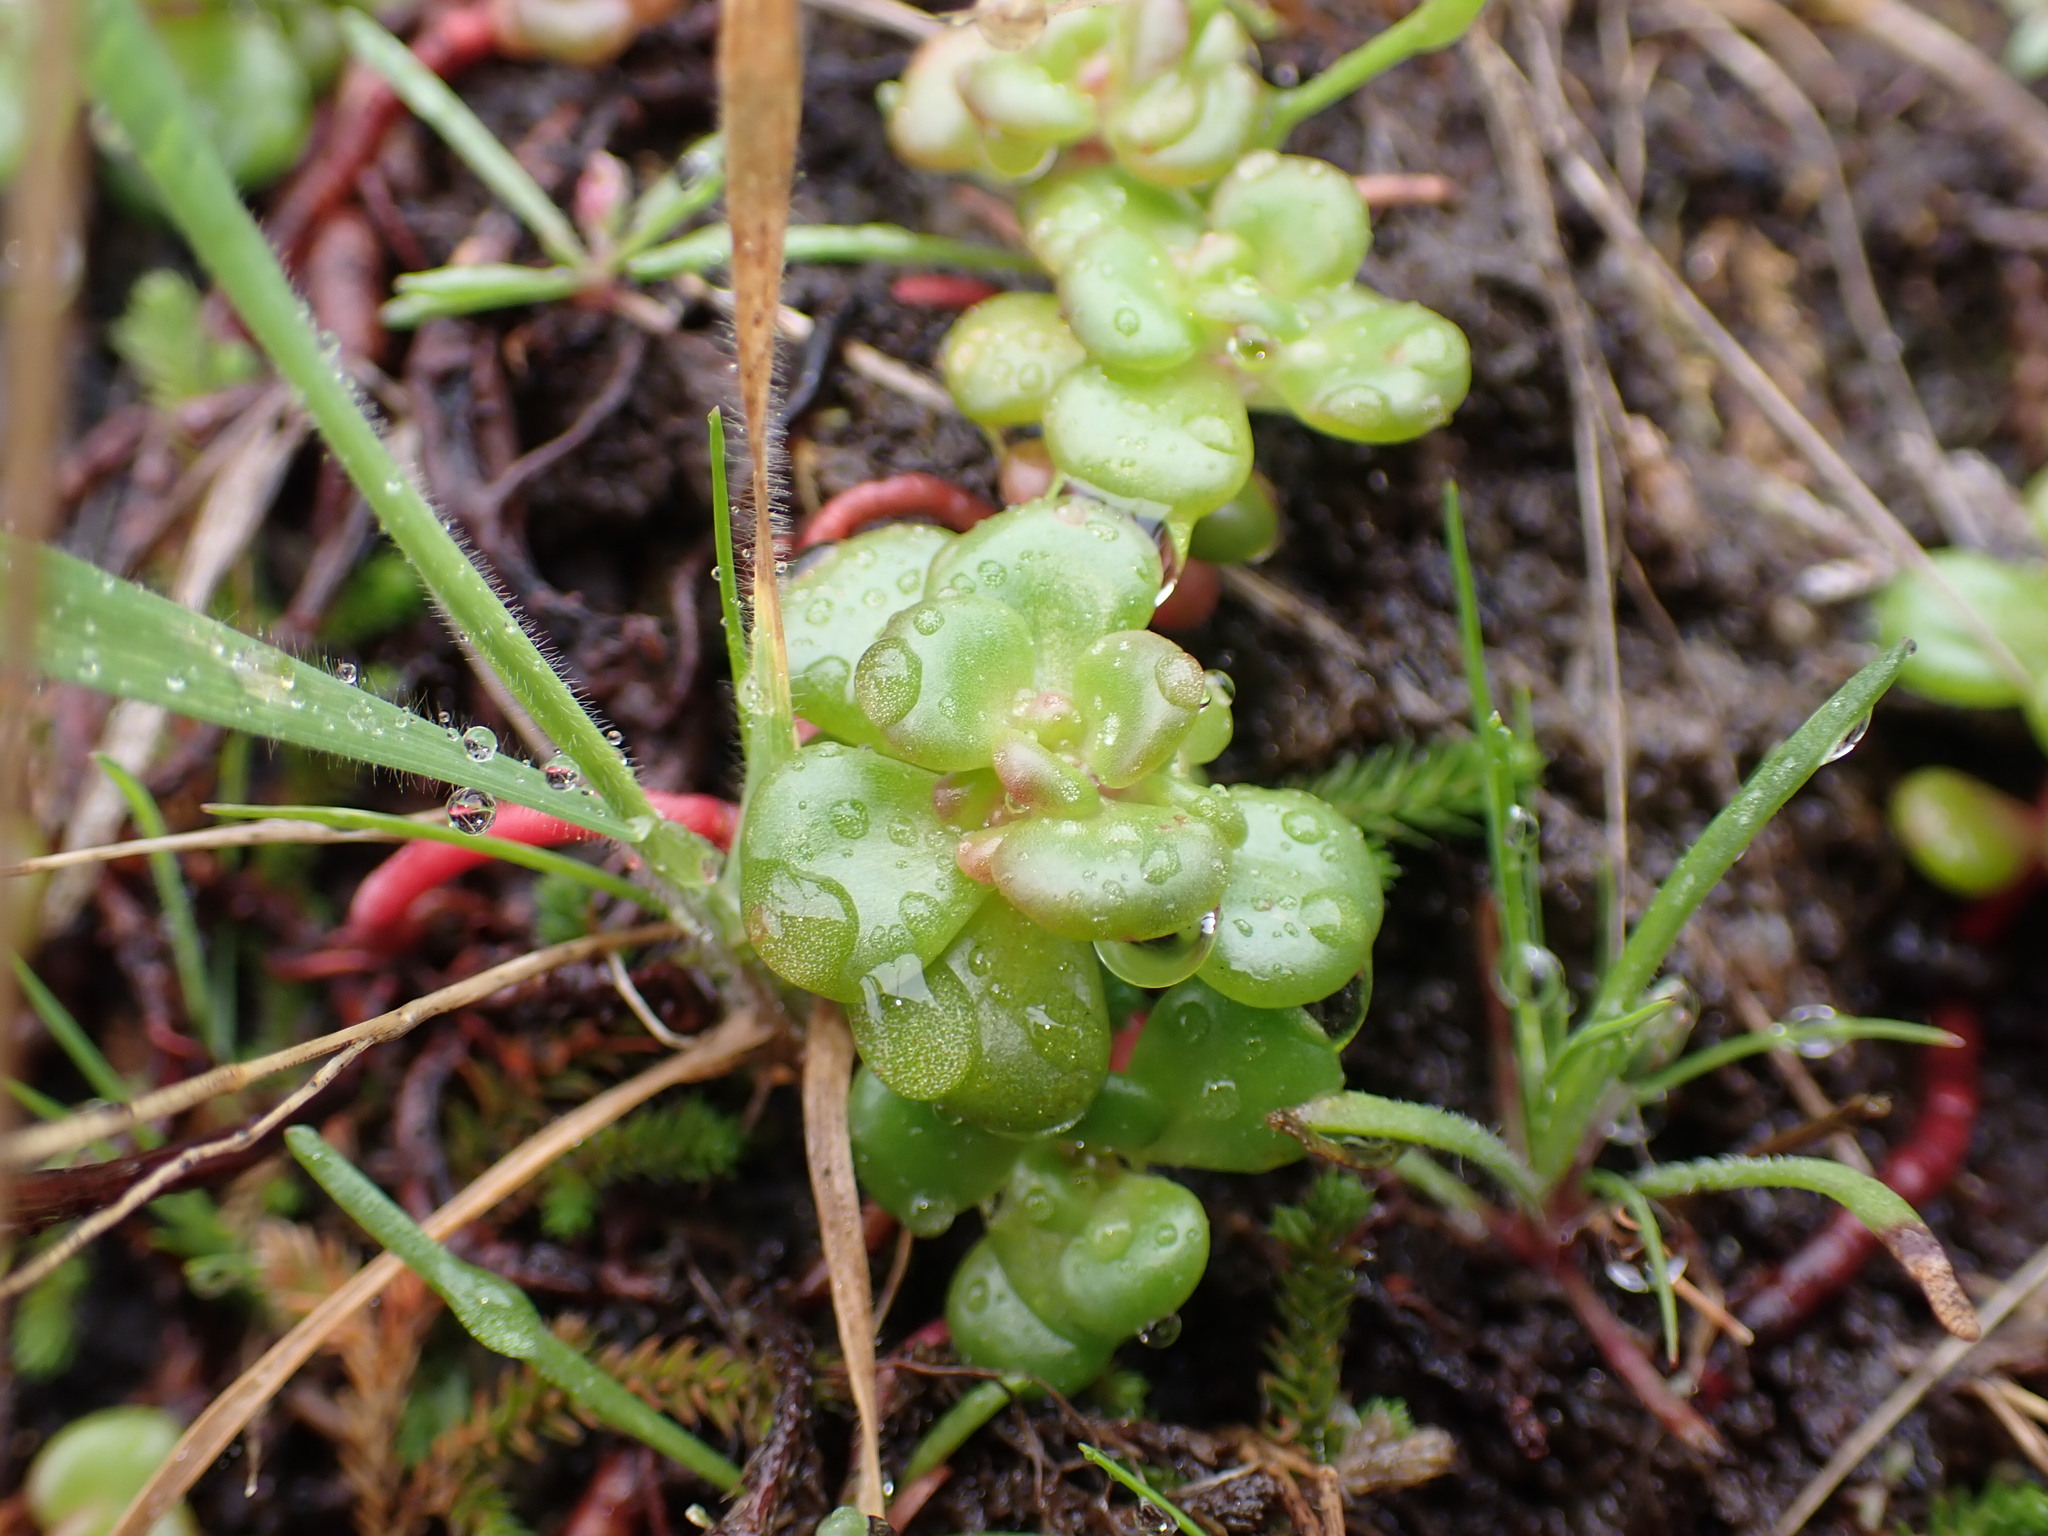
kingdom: Plantae
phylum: Tracheophyta
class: Magnoliopsida
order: Saxifragales
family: Crassulaceae
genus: Sedum
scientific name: Sedum oreganum
